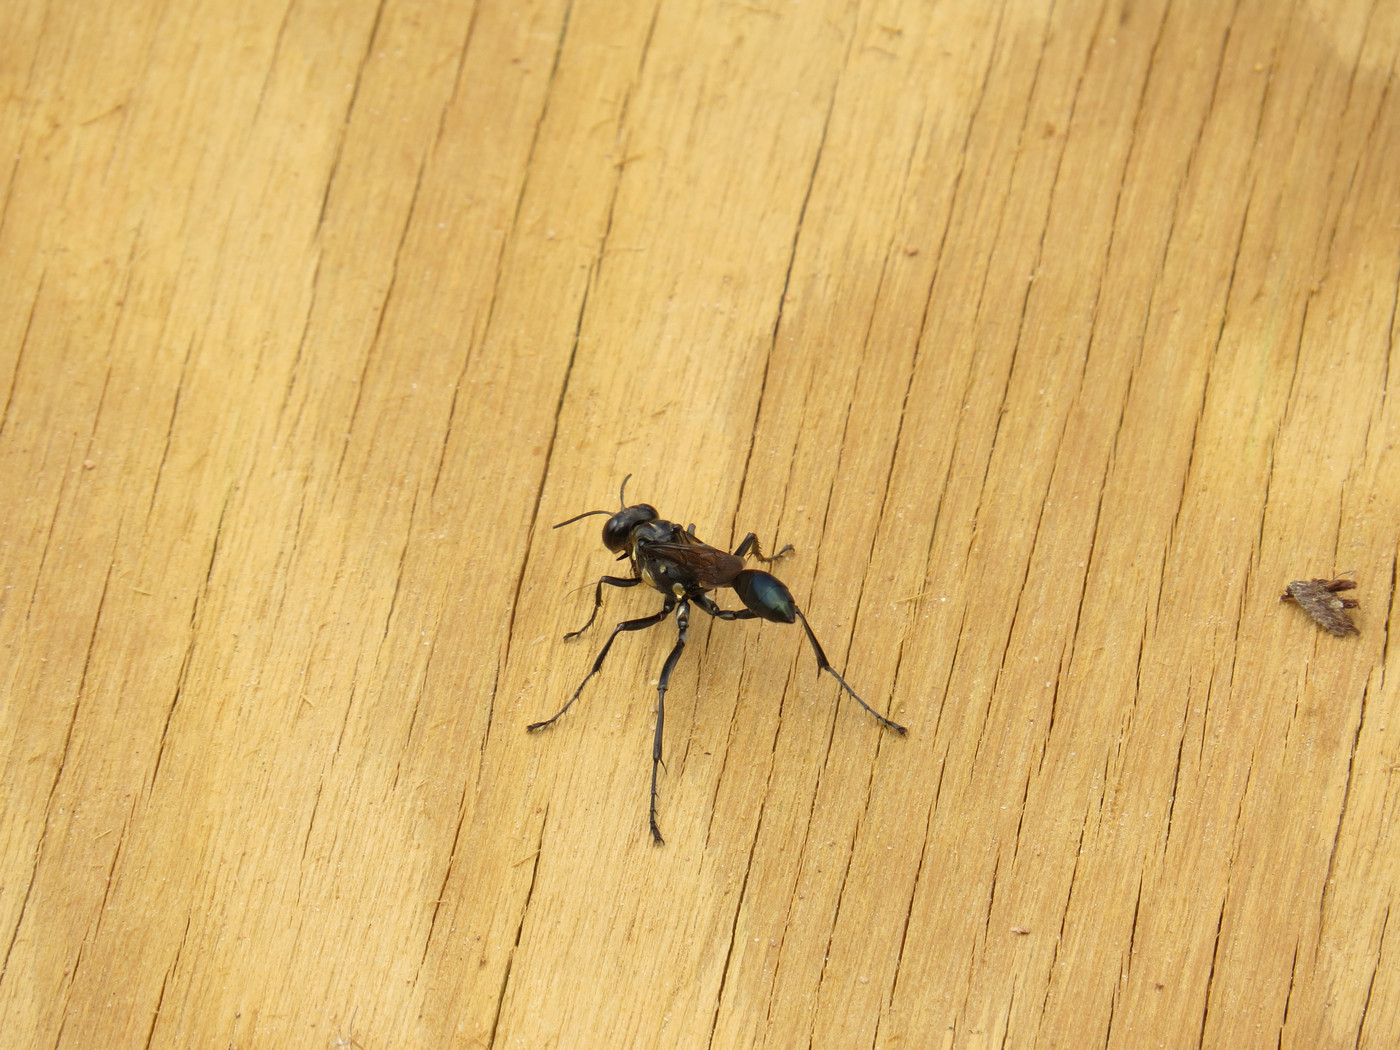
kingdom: Animalia
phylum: Arthropoda
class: Insecta
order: Hymenoptera
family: Sphecidae
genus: Eremnophila
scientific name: Eremnophila aureonotata
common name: Gold-marked thread-waisted wasp
